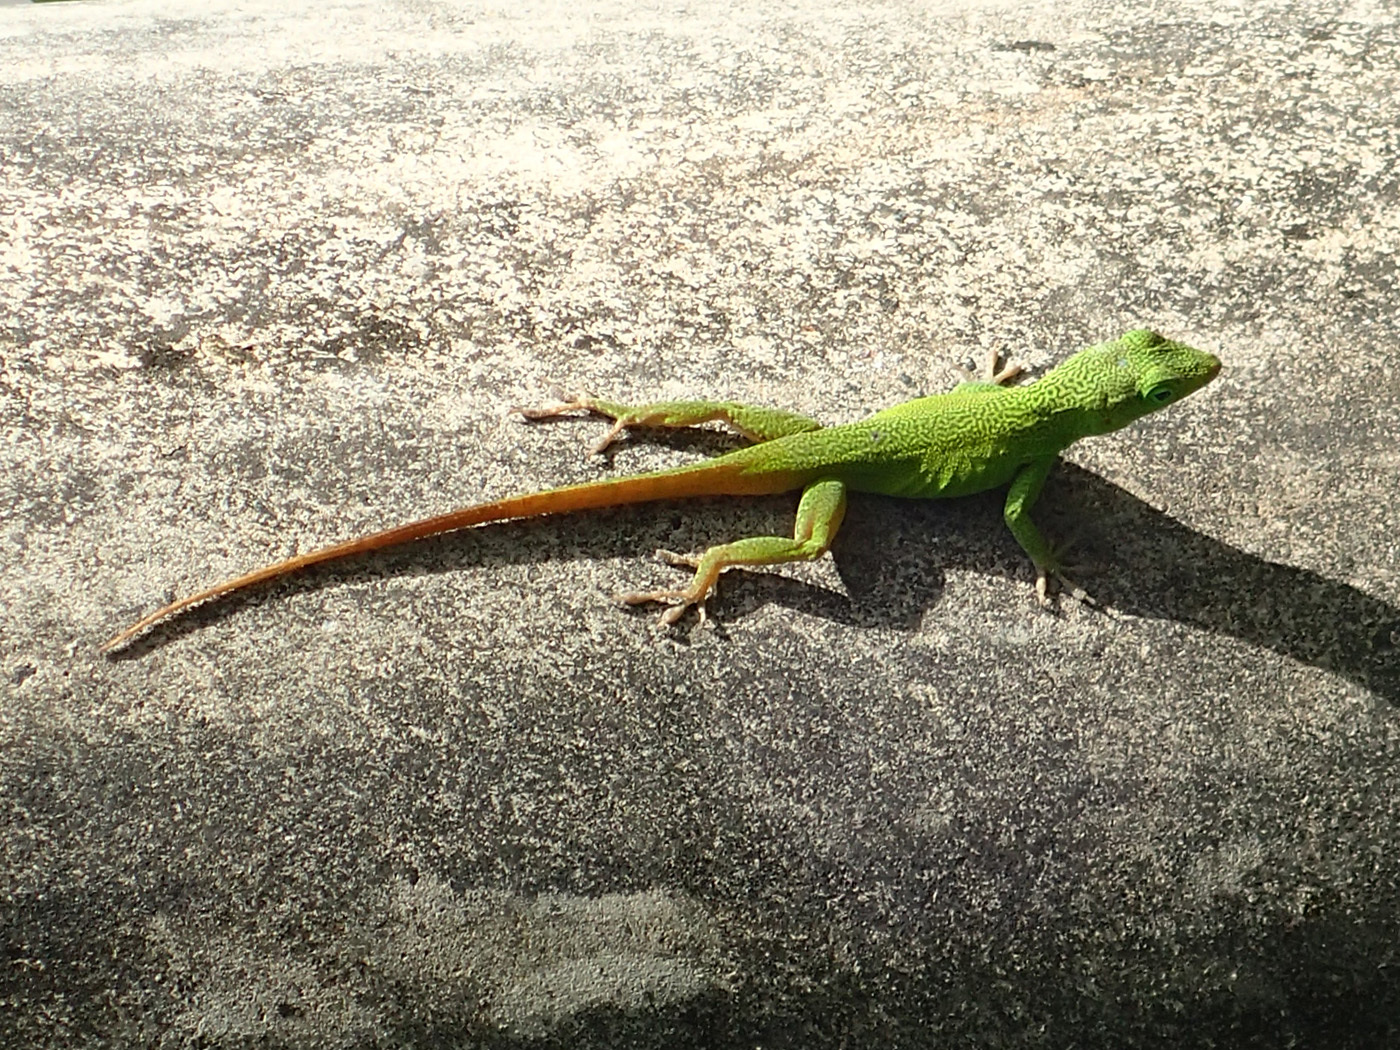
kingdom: Animalia
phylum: Chordata
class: Squamata
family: Dactyloidae
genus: Anolis
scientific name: Anolis grahami
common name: Graham's anole
